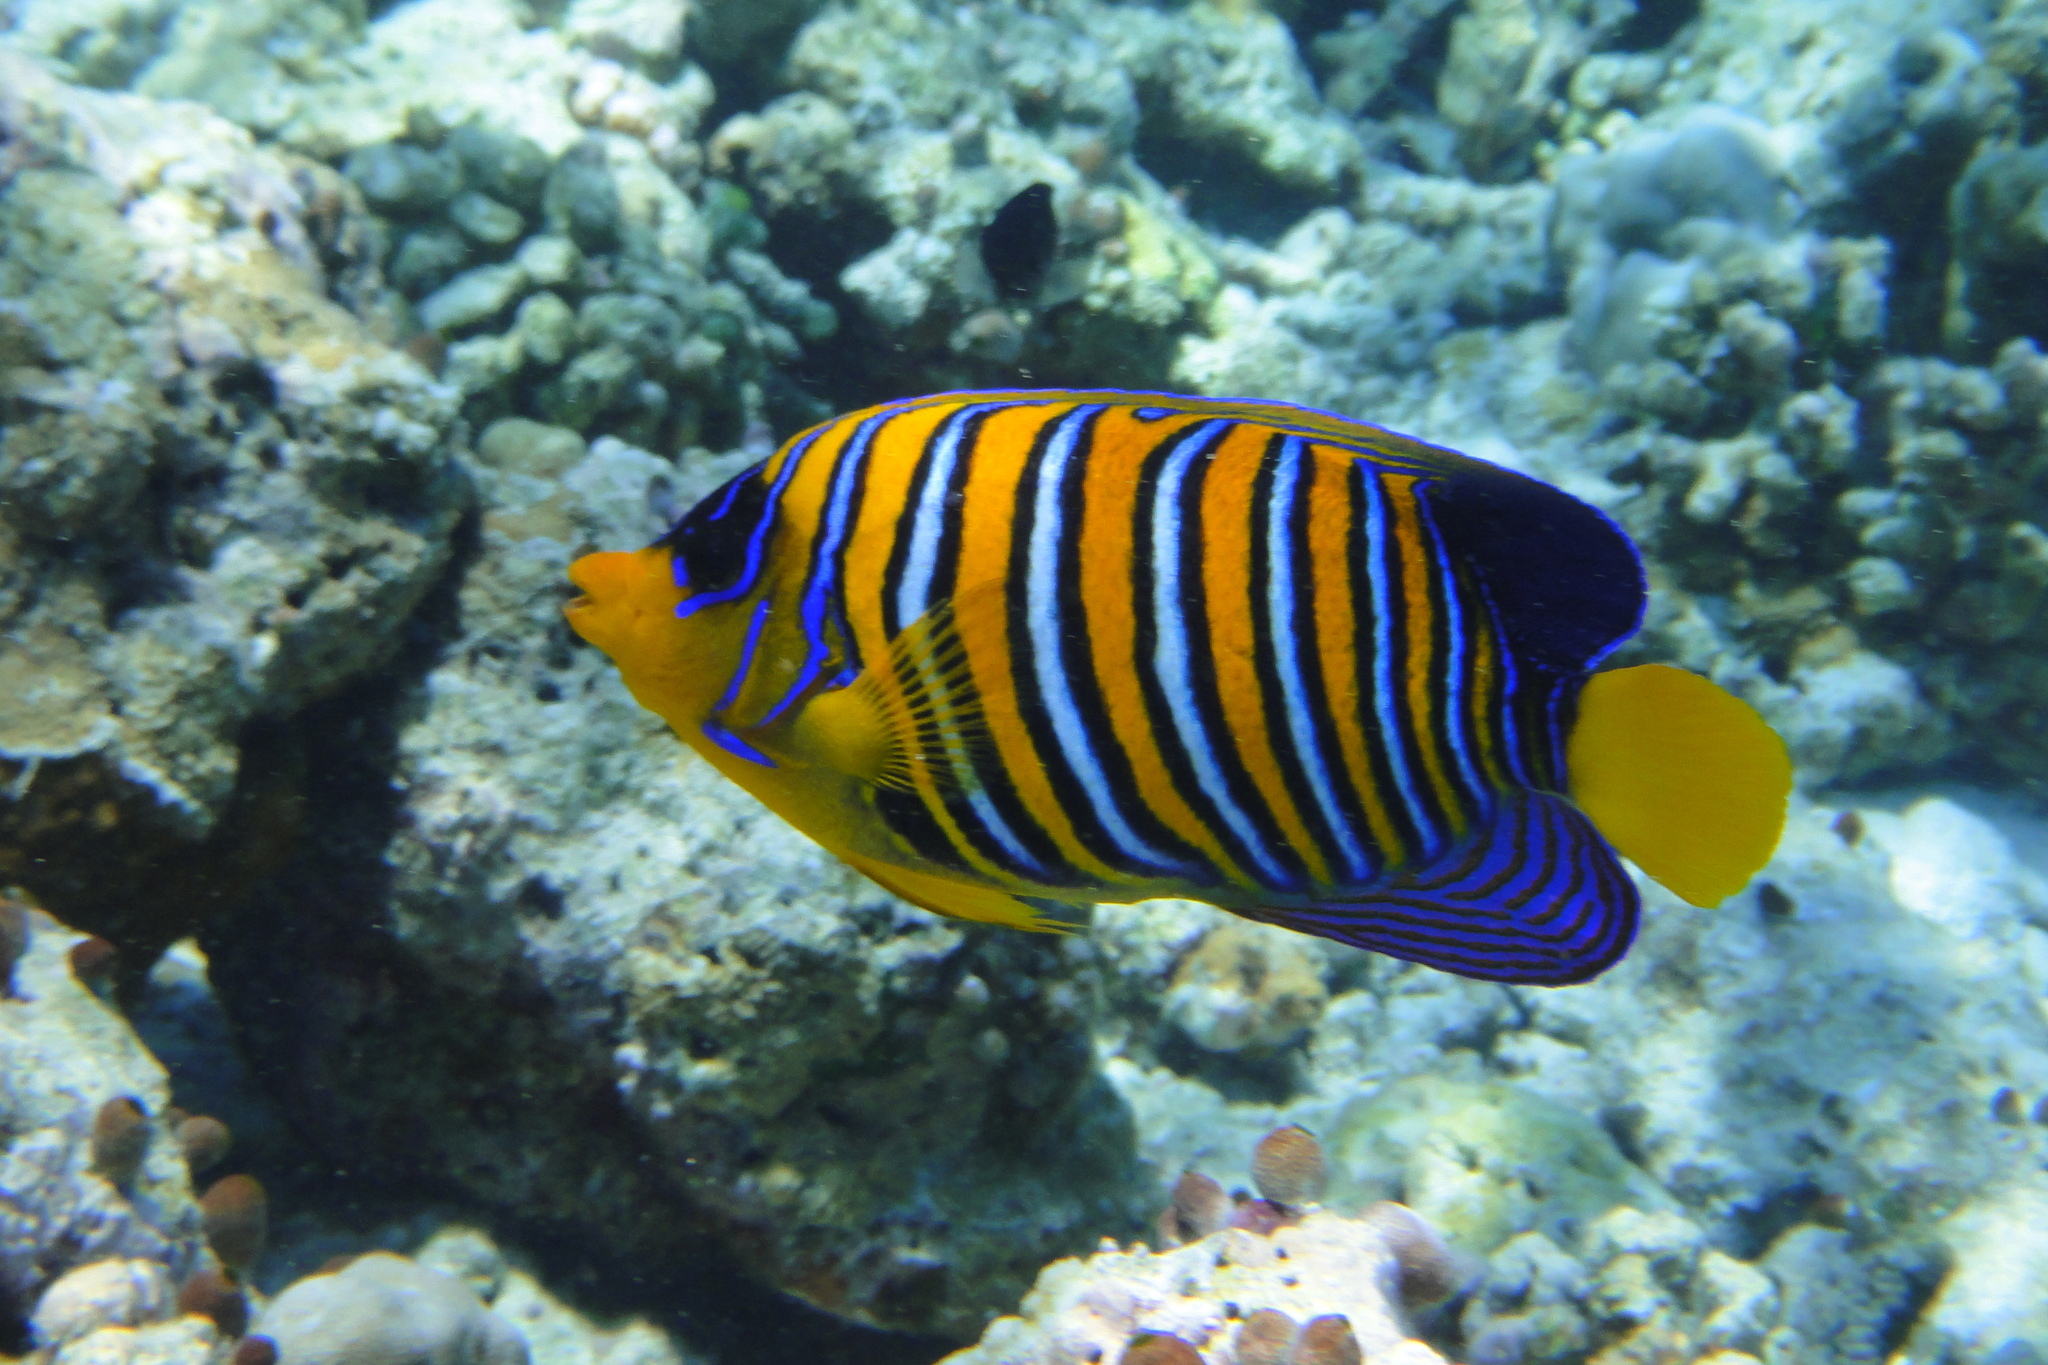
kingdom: Animalia
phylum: Chordata
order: Perciformes
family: Pomacanthidae
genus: Pygoplites
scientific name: Pygoplites diacanthus
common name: Regal angelfish
